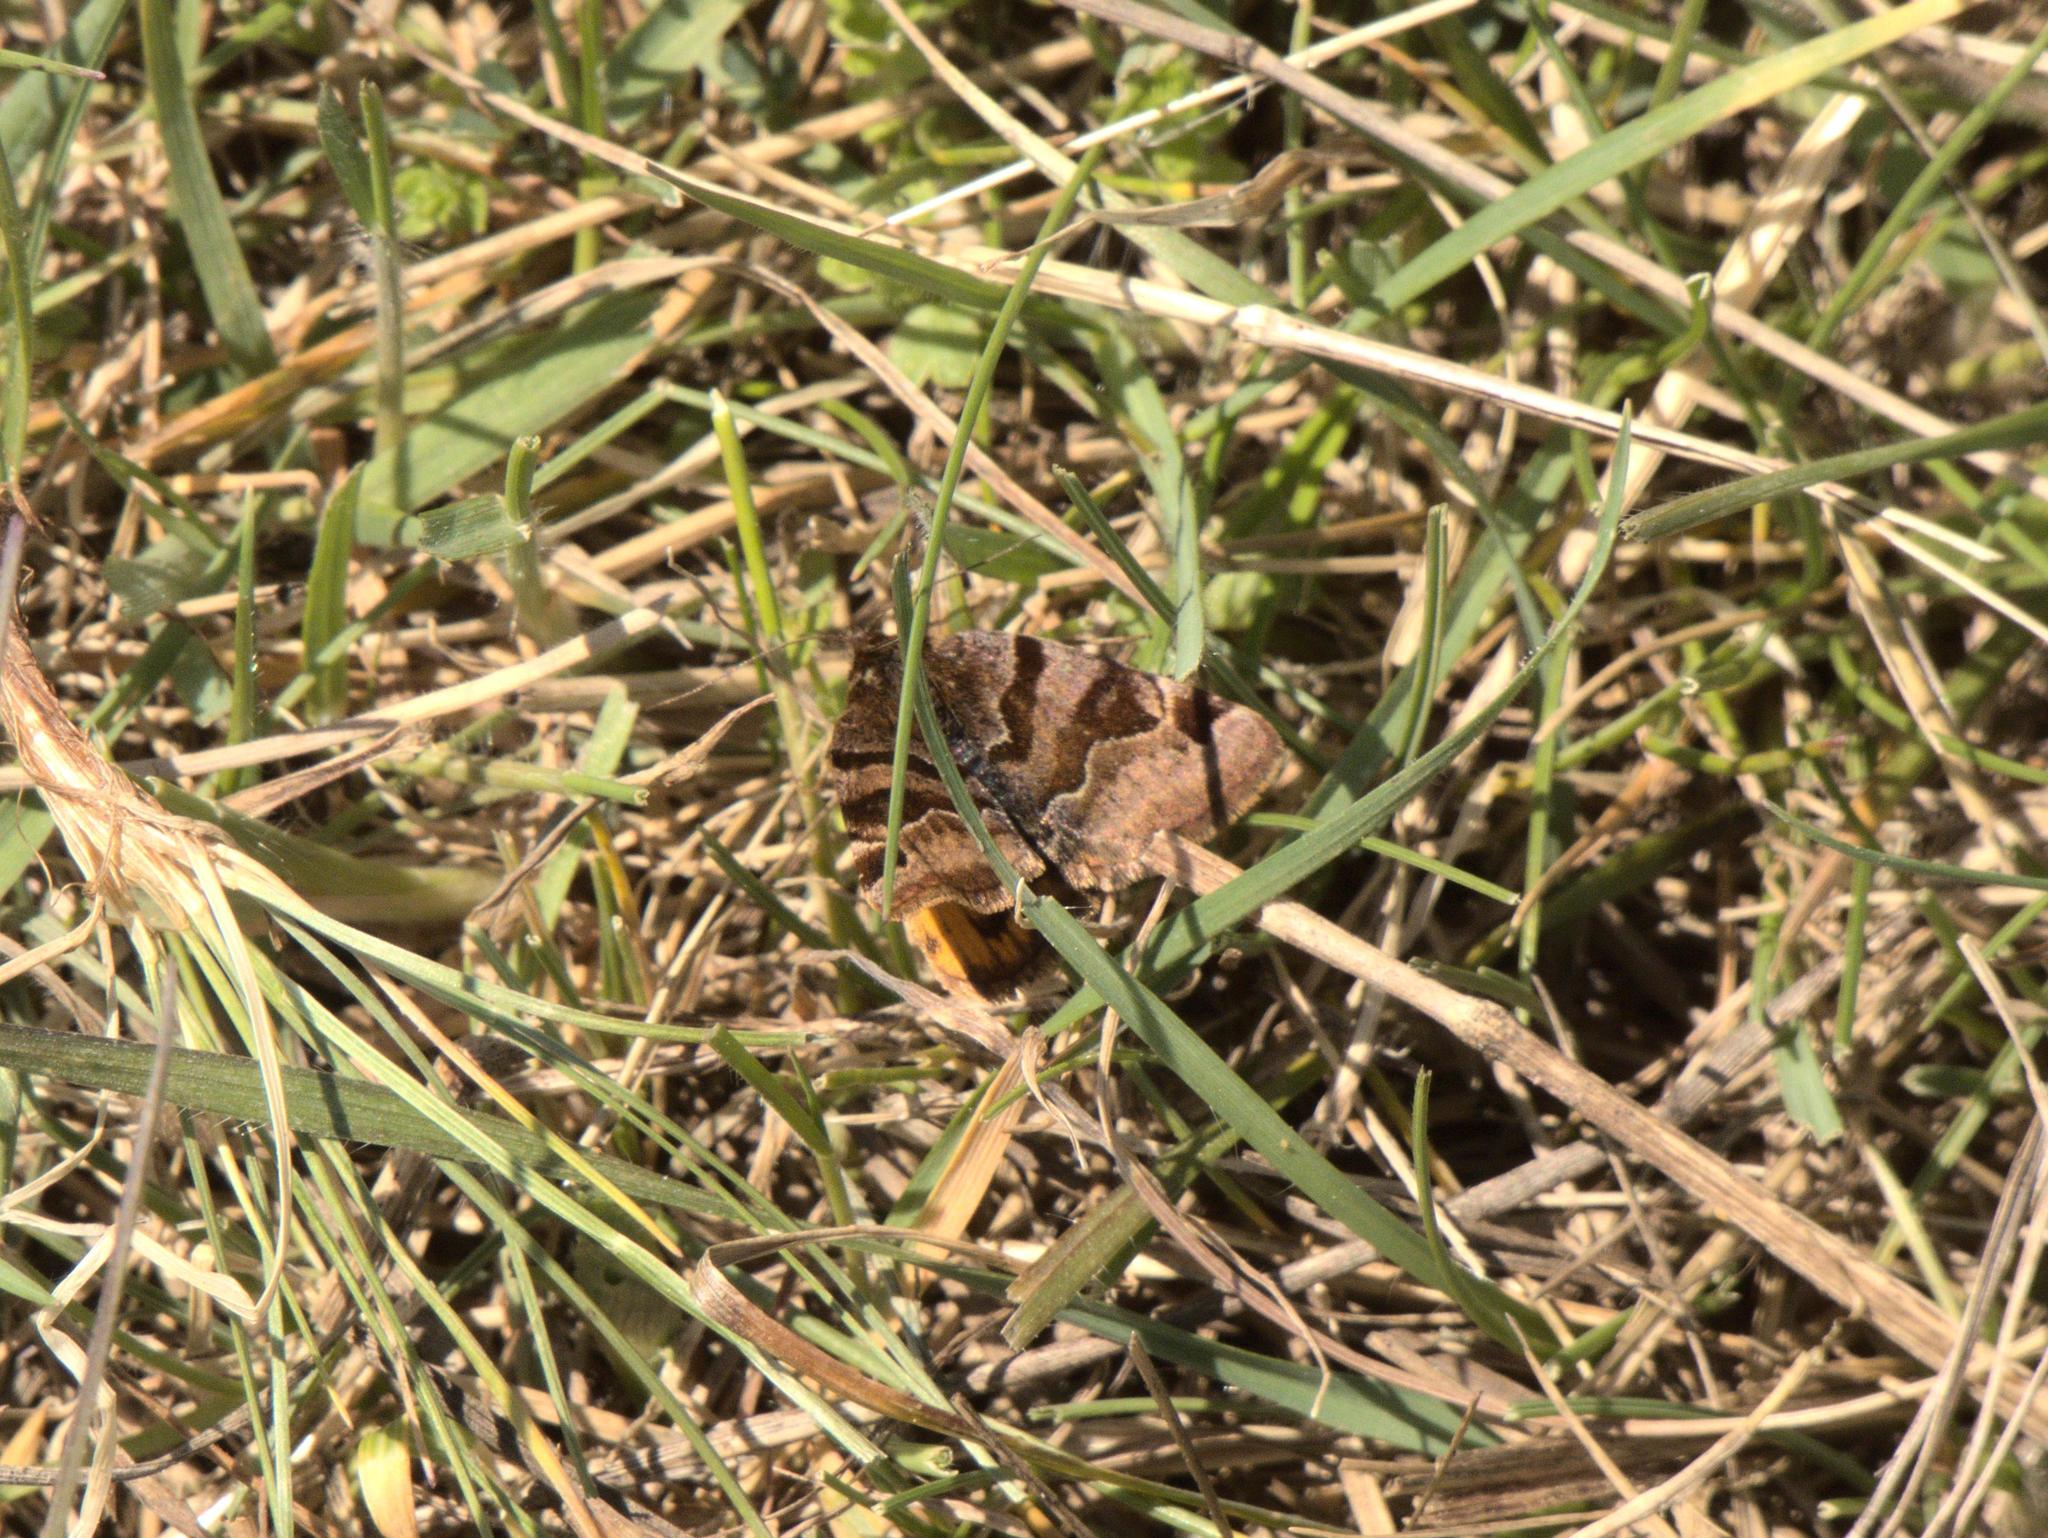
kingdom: Animalia
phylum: Arthropoda
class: Insecta
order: Lepidoptera
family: Erebidae
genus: Euclidia
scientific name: Euclidia glyphica
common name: Burnet companion
